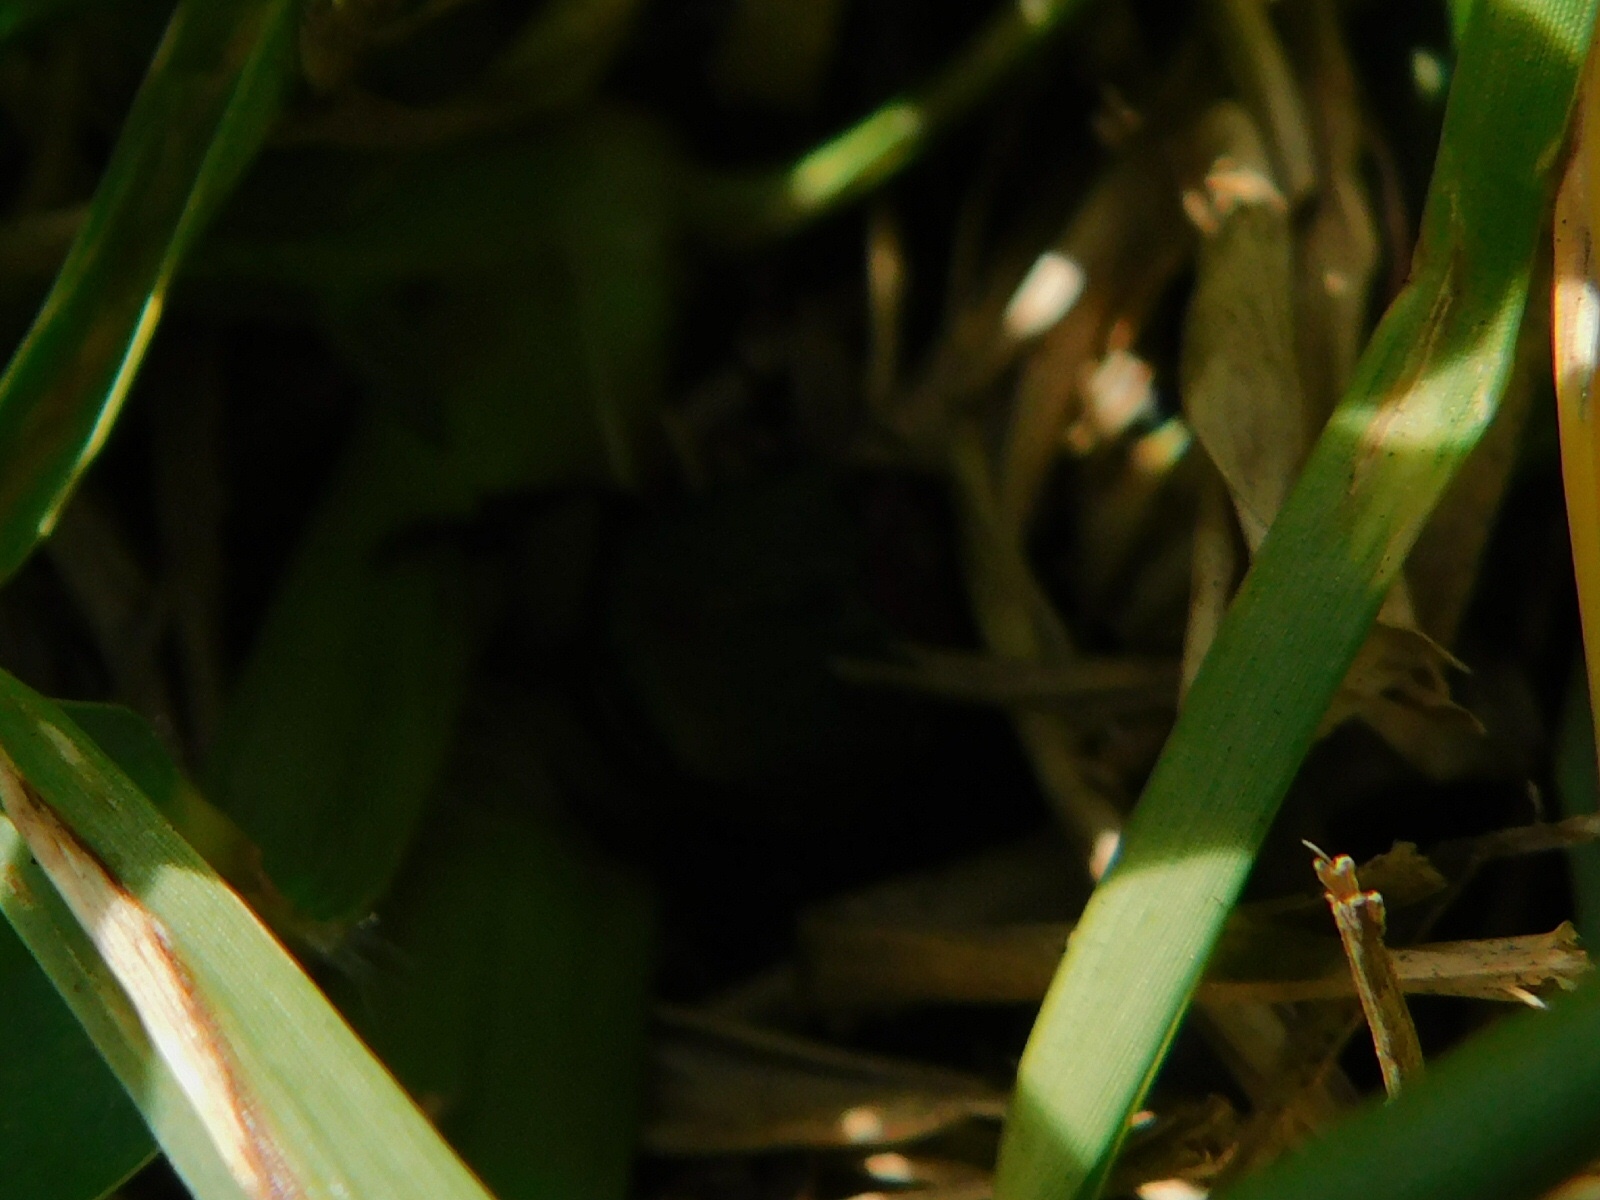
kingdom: Animalia
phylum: Arthropoda
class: Insecta
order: Coleoptera
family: Scarabaeidae
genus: Phanaeus
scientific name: Phanaeus vindex
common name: Rainbow scarab
